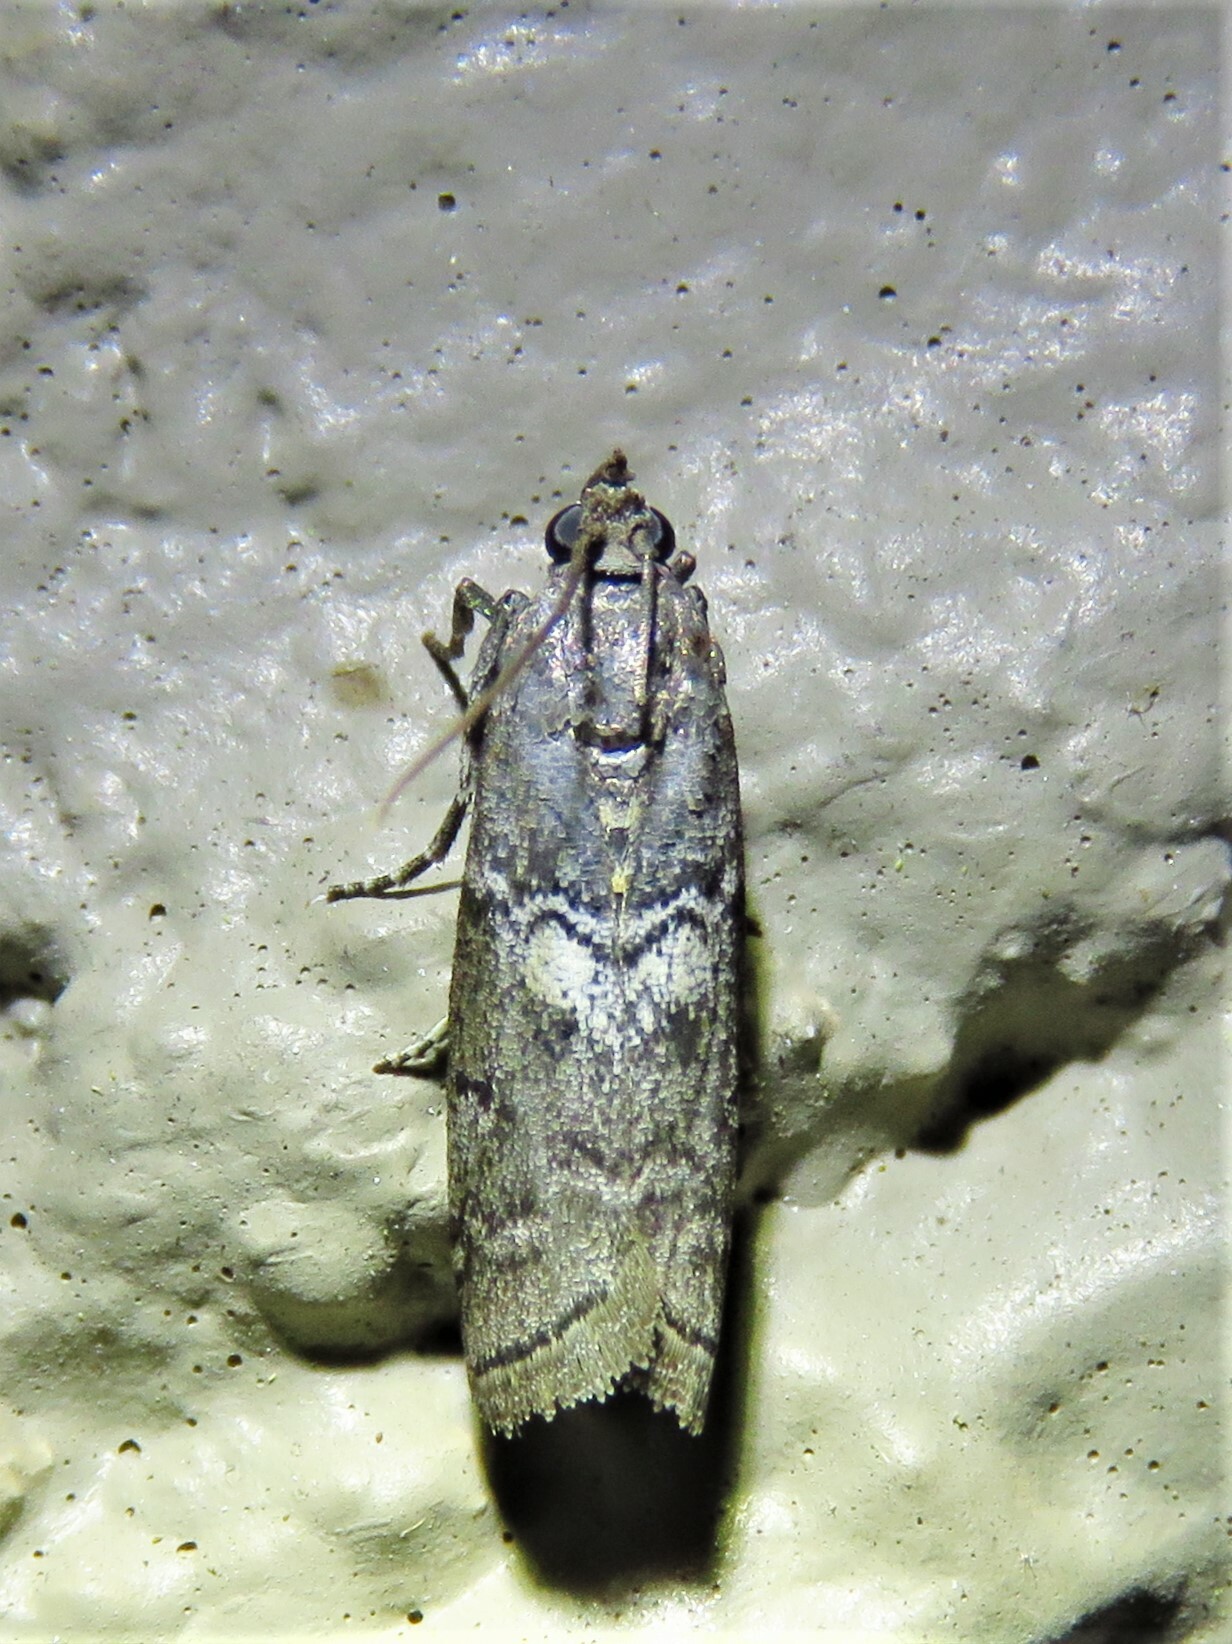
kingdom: Animalia
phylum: Arthropoda
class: Insecta
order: Lepidoptera
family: Pyralidae
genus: Ancylosis
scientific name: Ancylosis Canarsia ulmiarrosorella
